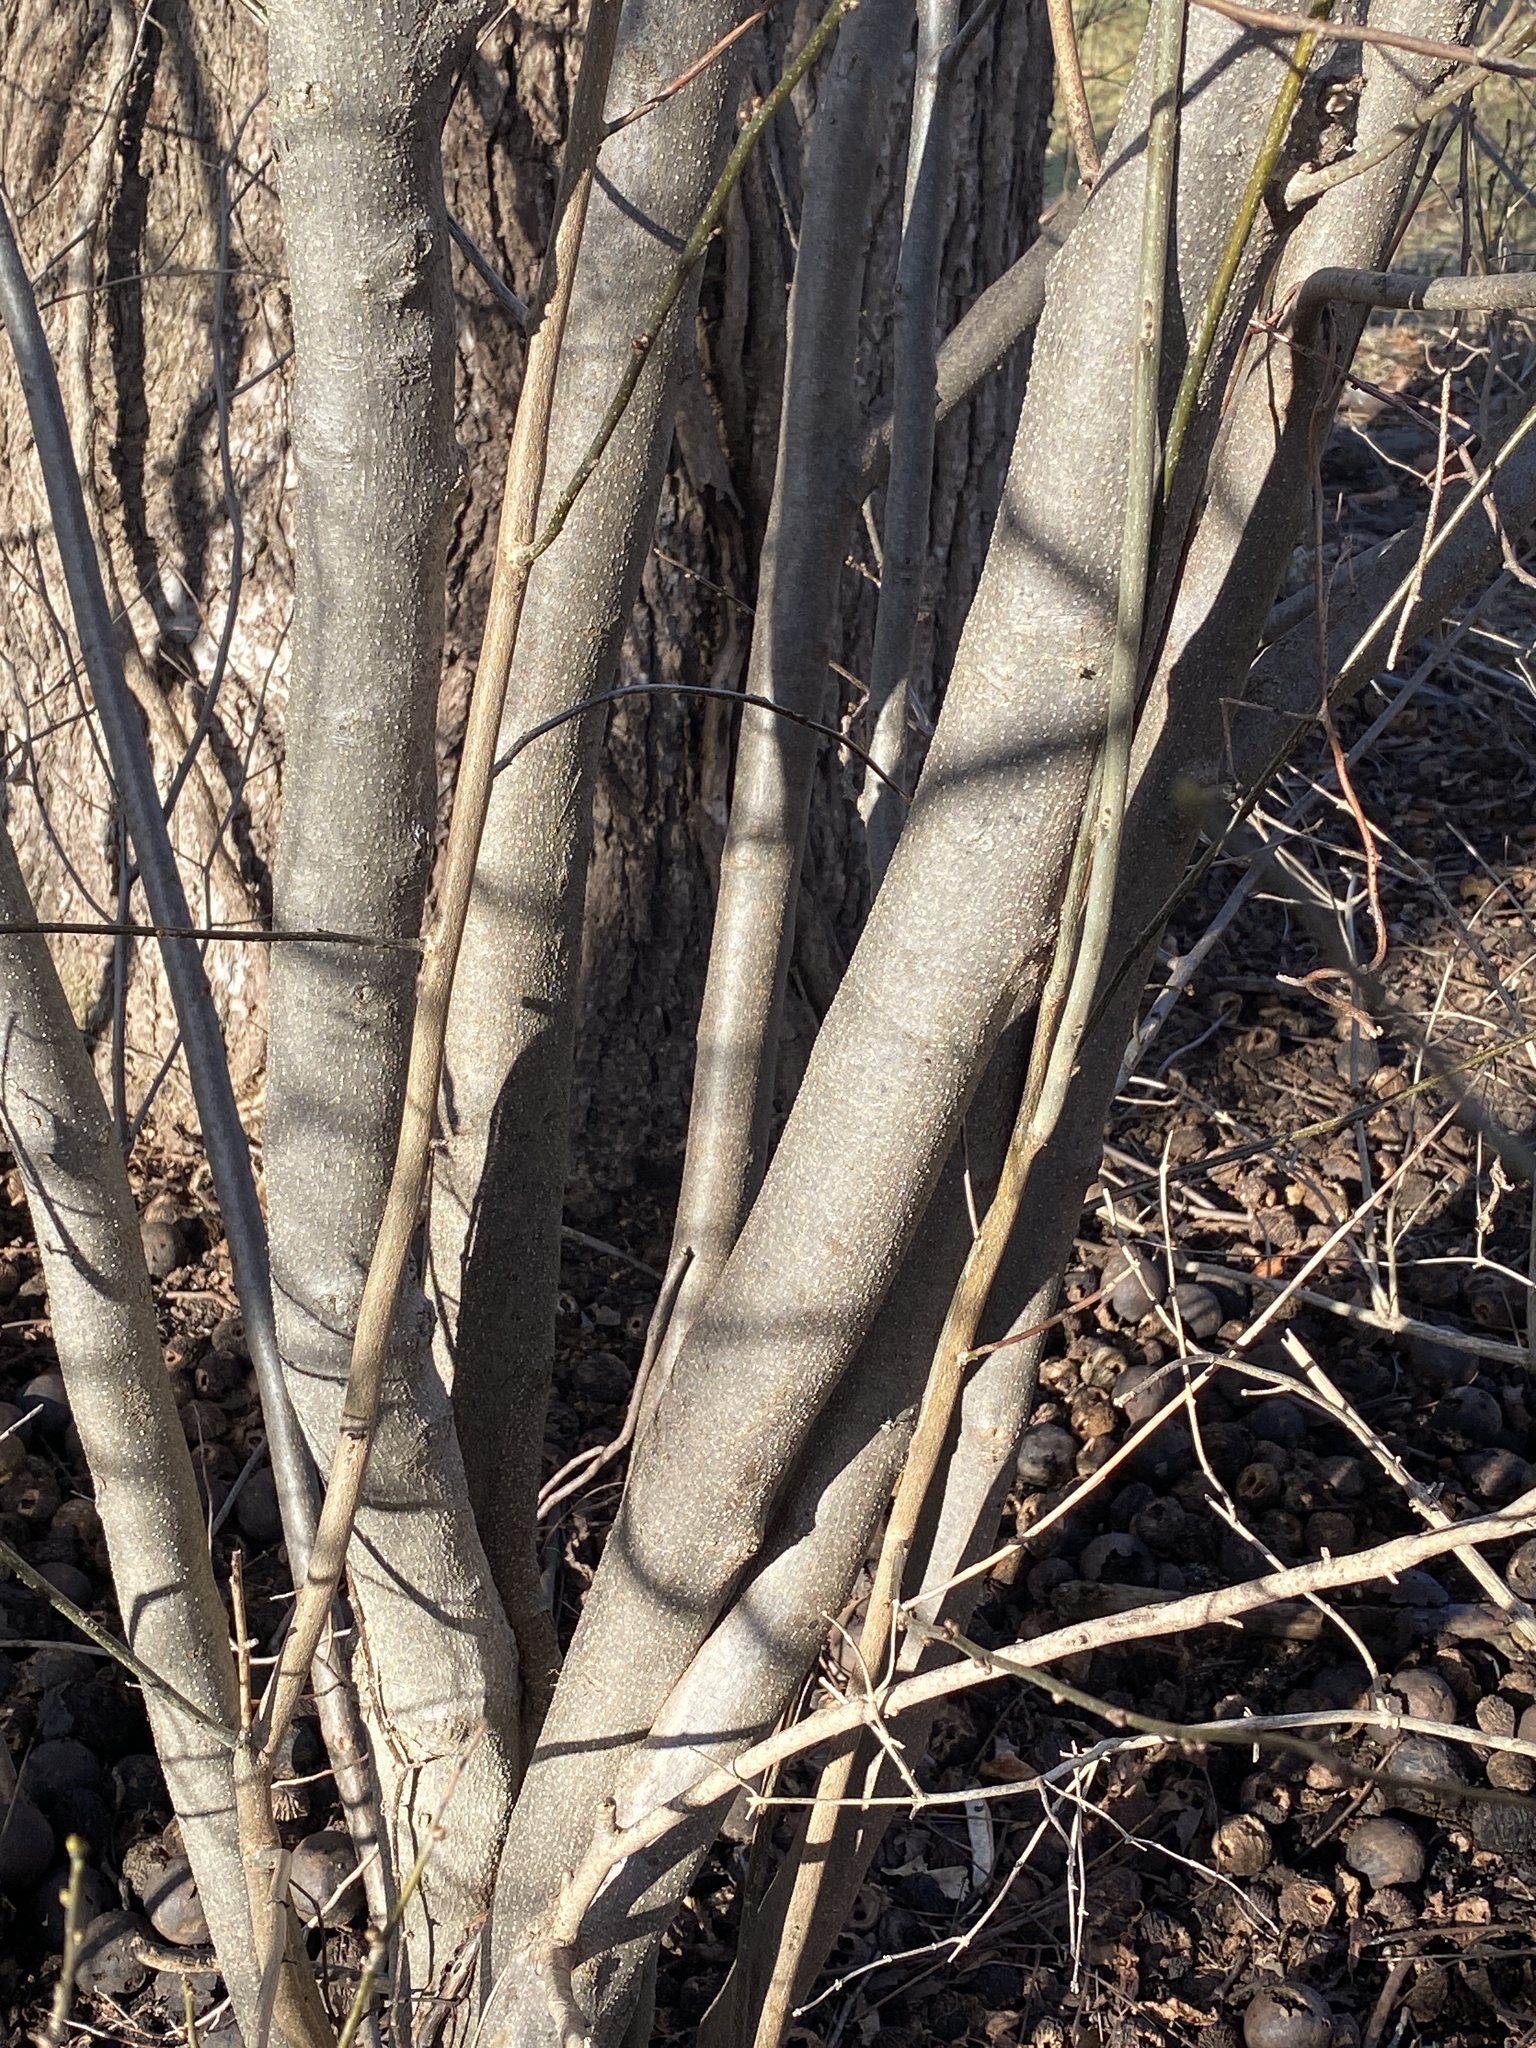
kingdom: Plantae
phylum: Tracheophyta
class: Magnoliopsida
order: Laurales
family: Lauraceae
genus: Lindera
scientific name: Lindera benzoin
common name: Spicebush
